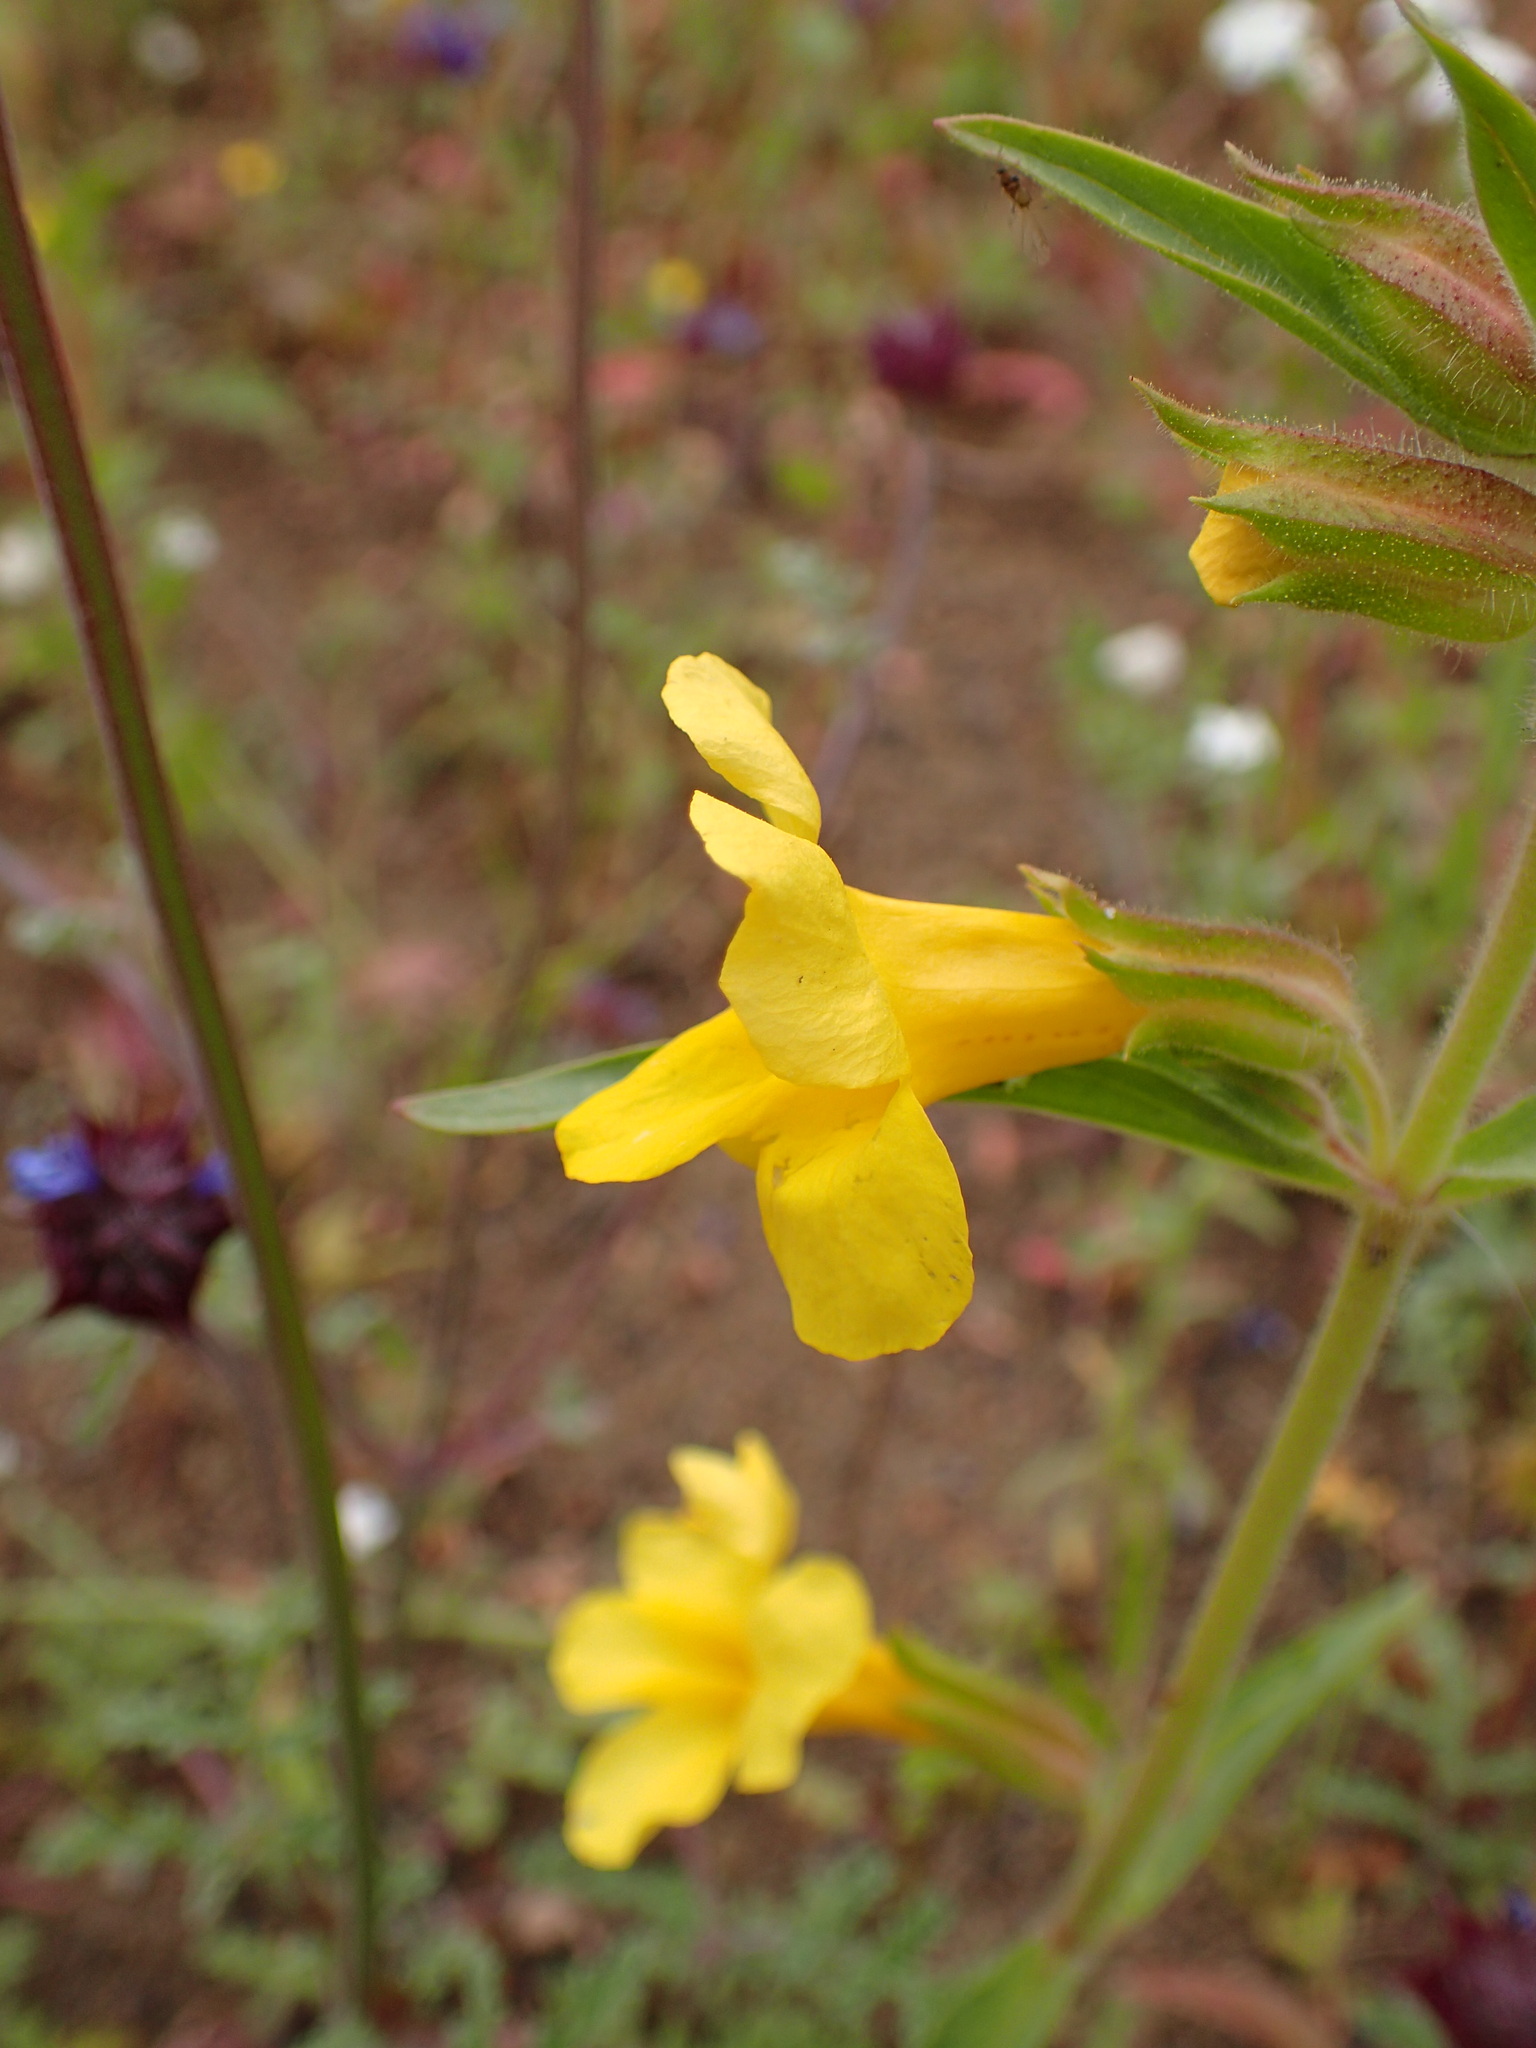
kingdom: Plantae
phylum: Tracheophyta
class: Magnoliopsida
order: Lamiales
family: Phrymaceae
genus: Diplacus
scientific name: Diplacus brevipes
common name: Wide-throat yellow monkey-flower
